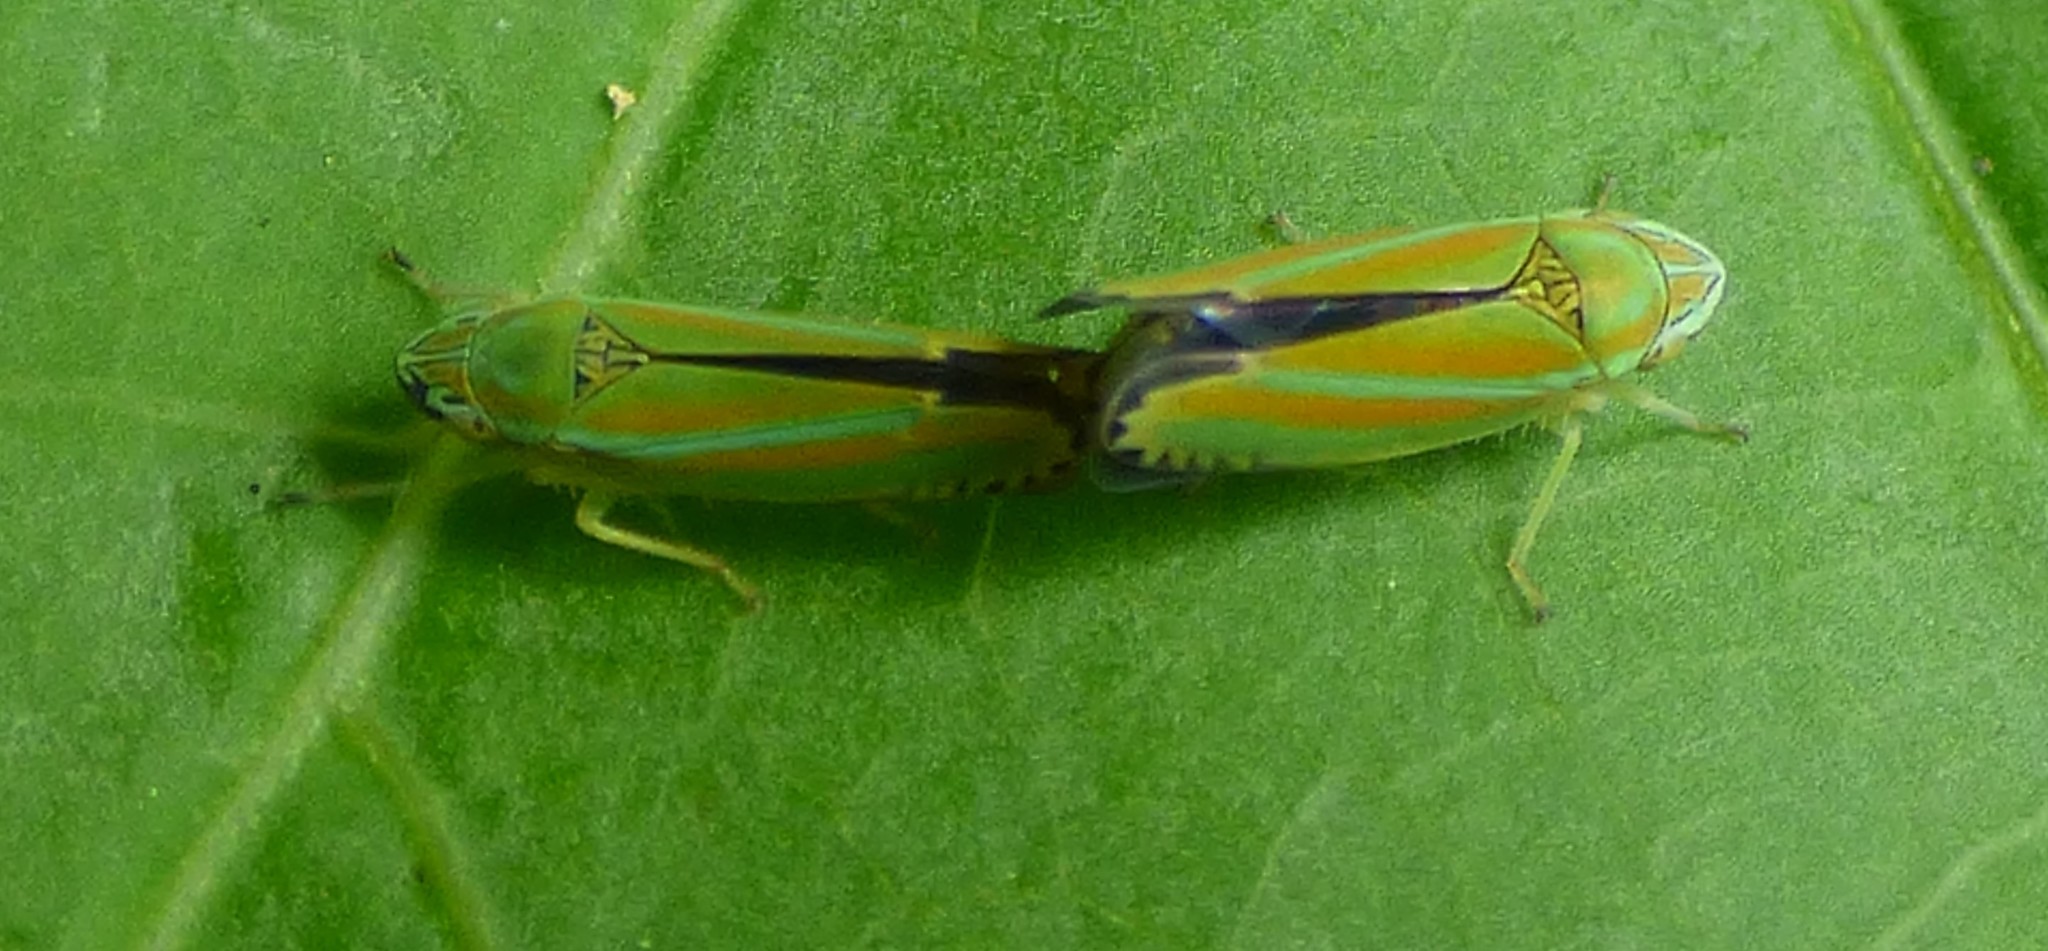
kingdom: Animalia
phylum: Arthropoda
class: Insecta
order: Hemiptera
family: Cicadellidae
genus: Graphocephala
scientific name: Graphocephala versuta
